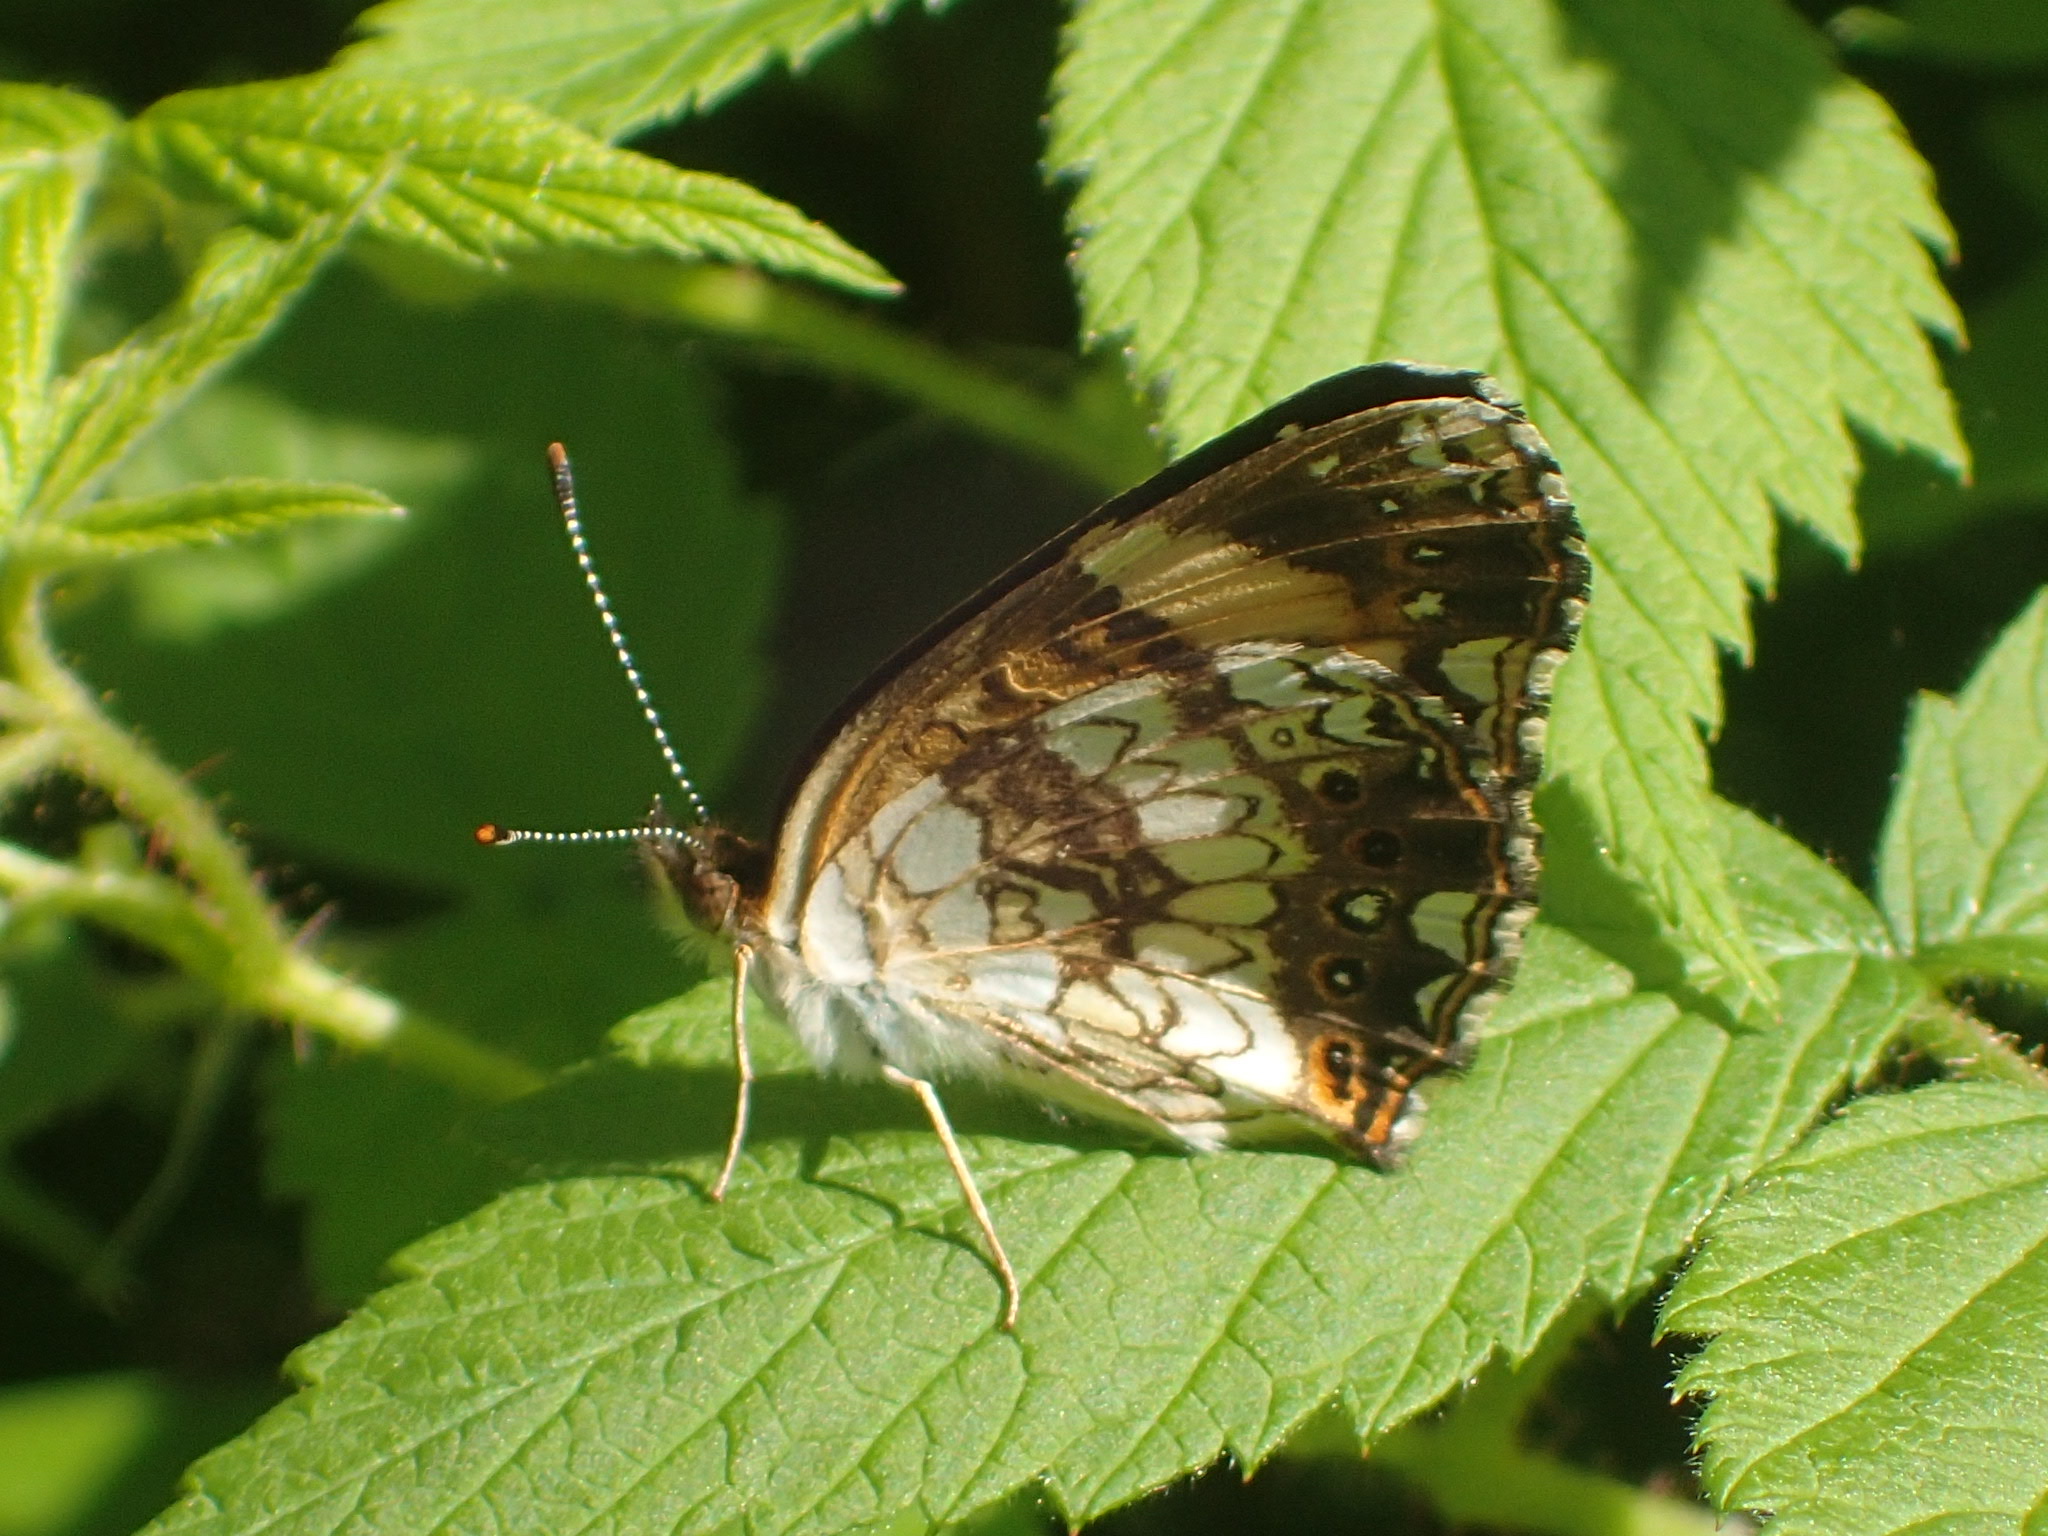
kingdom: Animalia
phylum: Arthropoda
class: Insecta
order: Lepidoptera
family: Nymphalidae
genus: Chlosyne
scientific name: Chlosyne nycteis
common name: Silvery checkerspot
